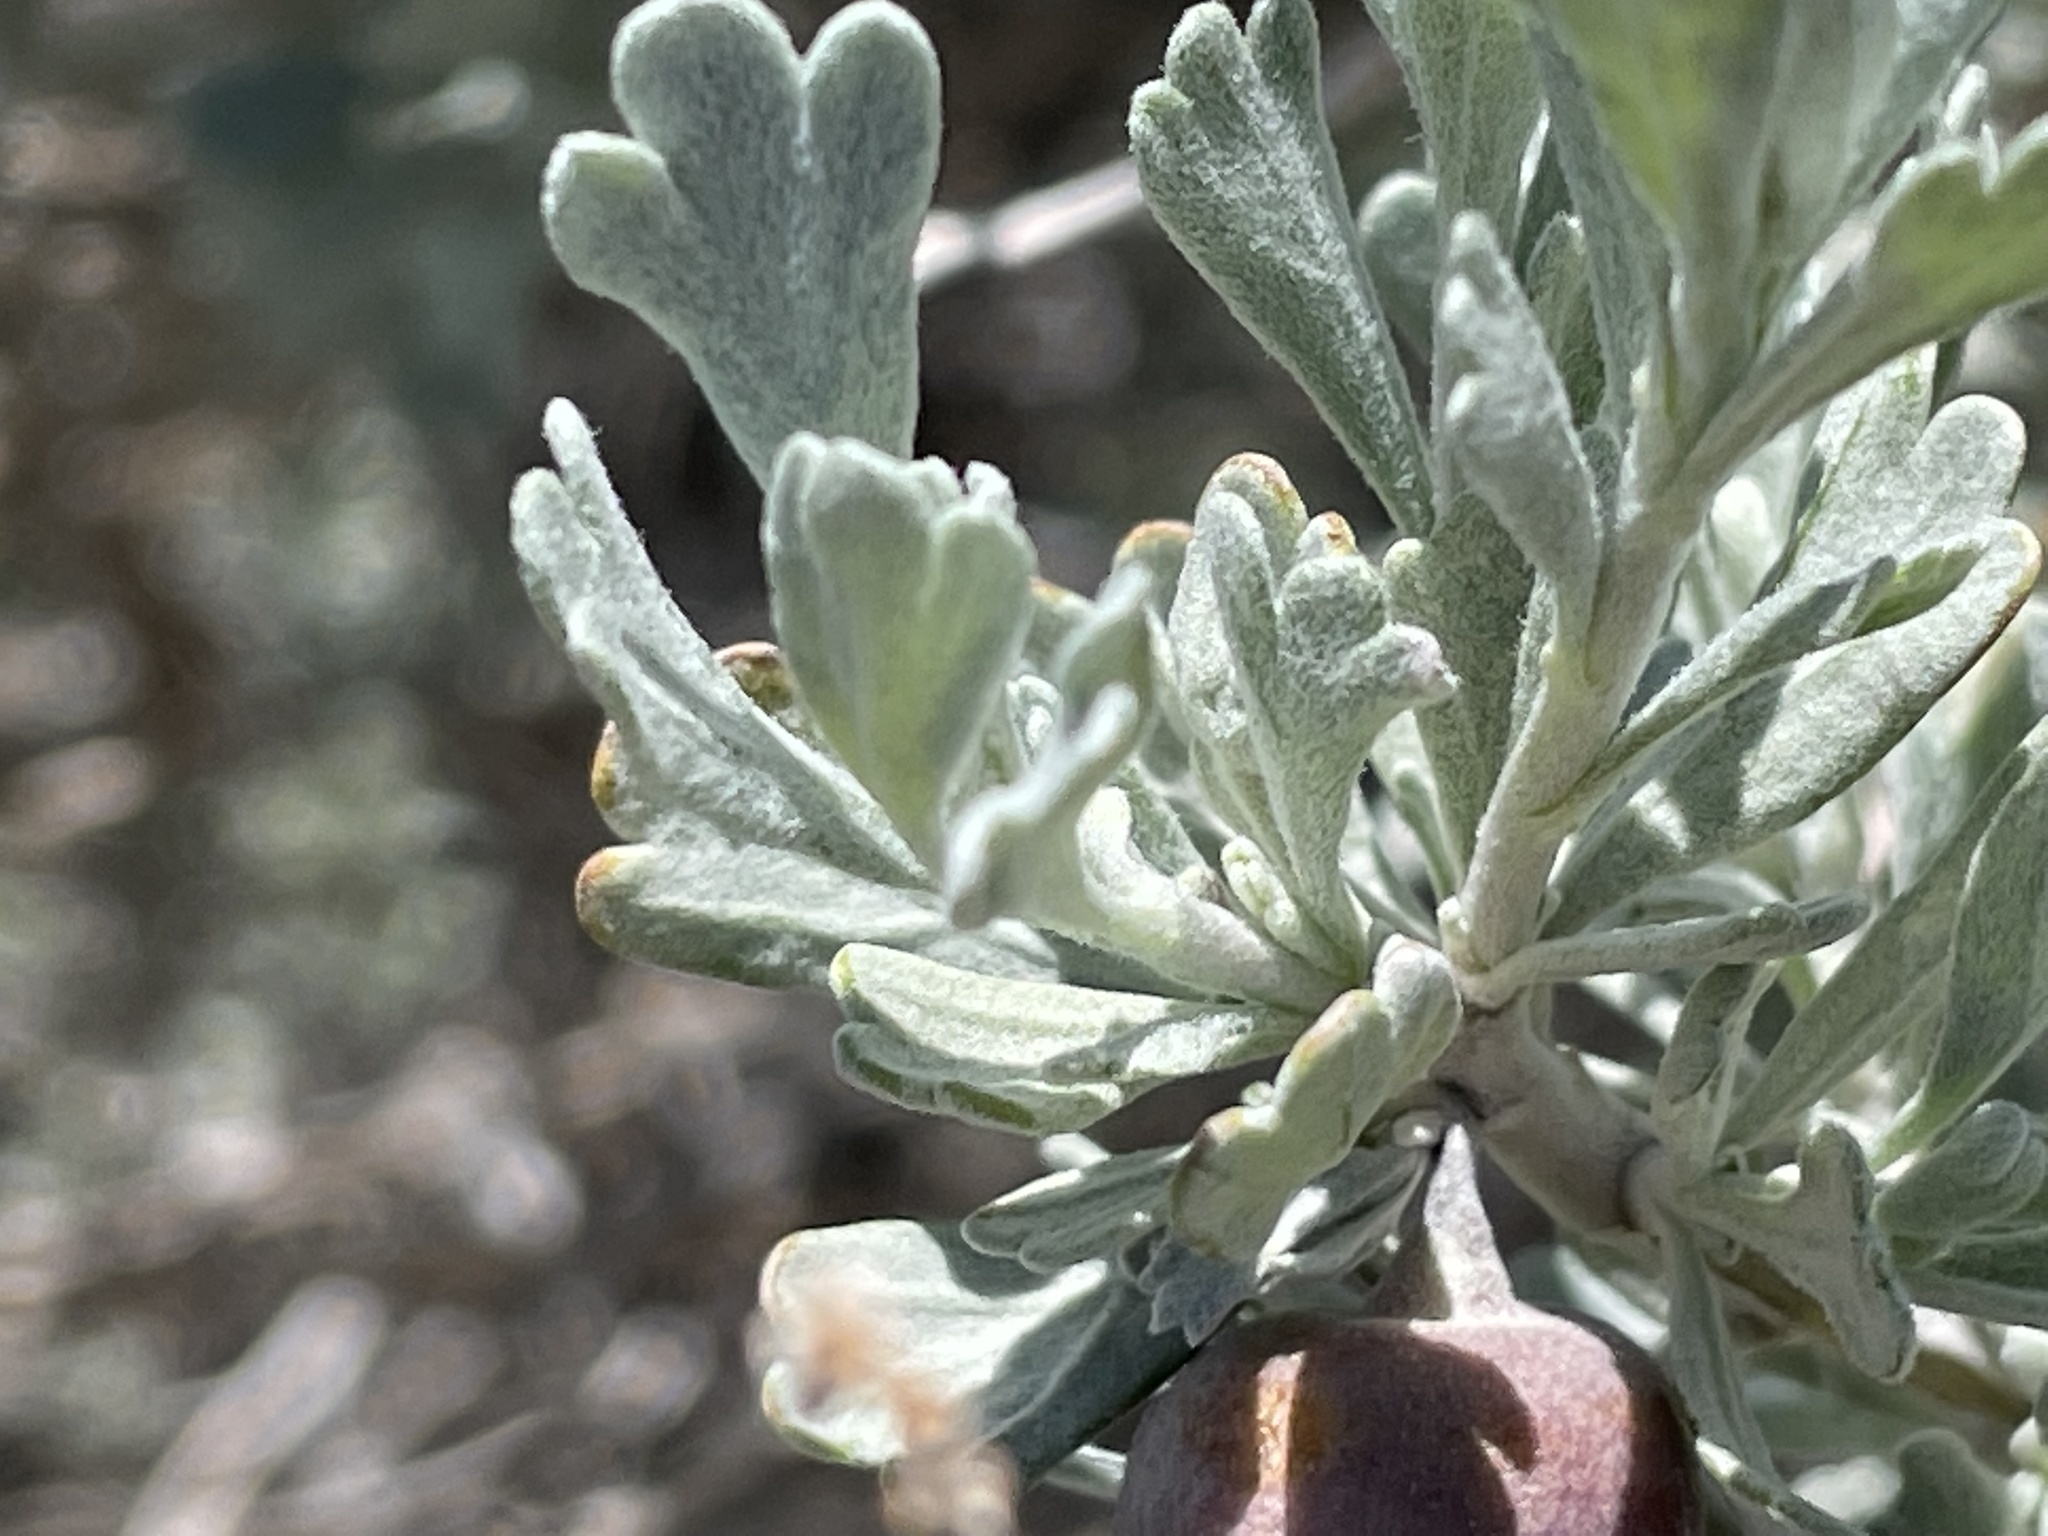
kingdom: Plantae
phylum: Tracheophyta
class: Magnoliopsida
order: Asterales
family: Asteraceae
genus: Artemisia
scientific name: Artemisia tridentata
